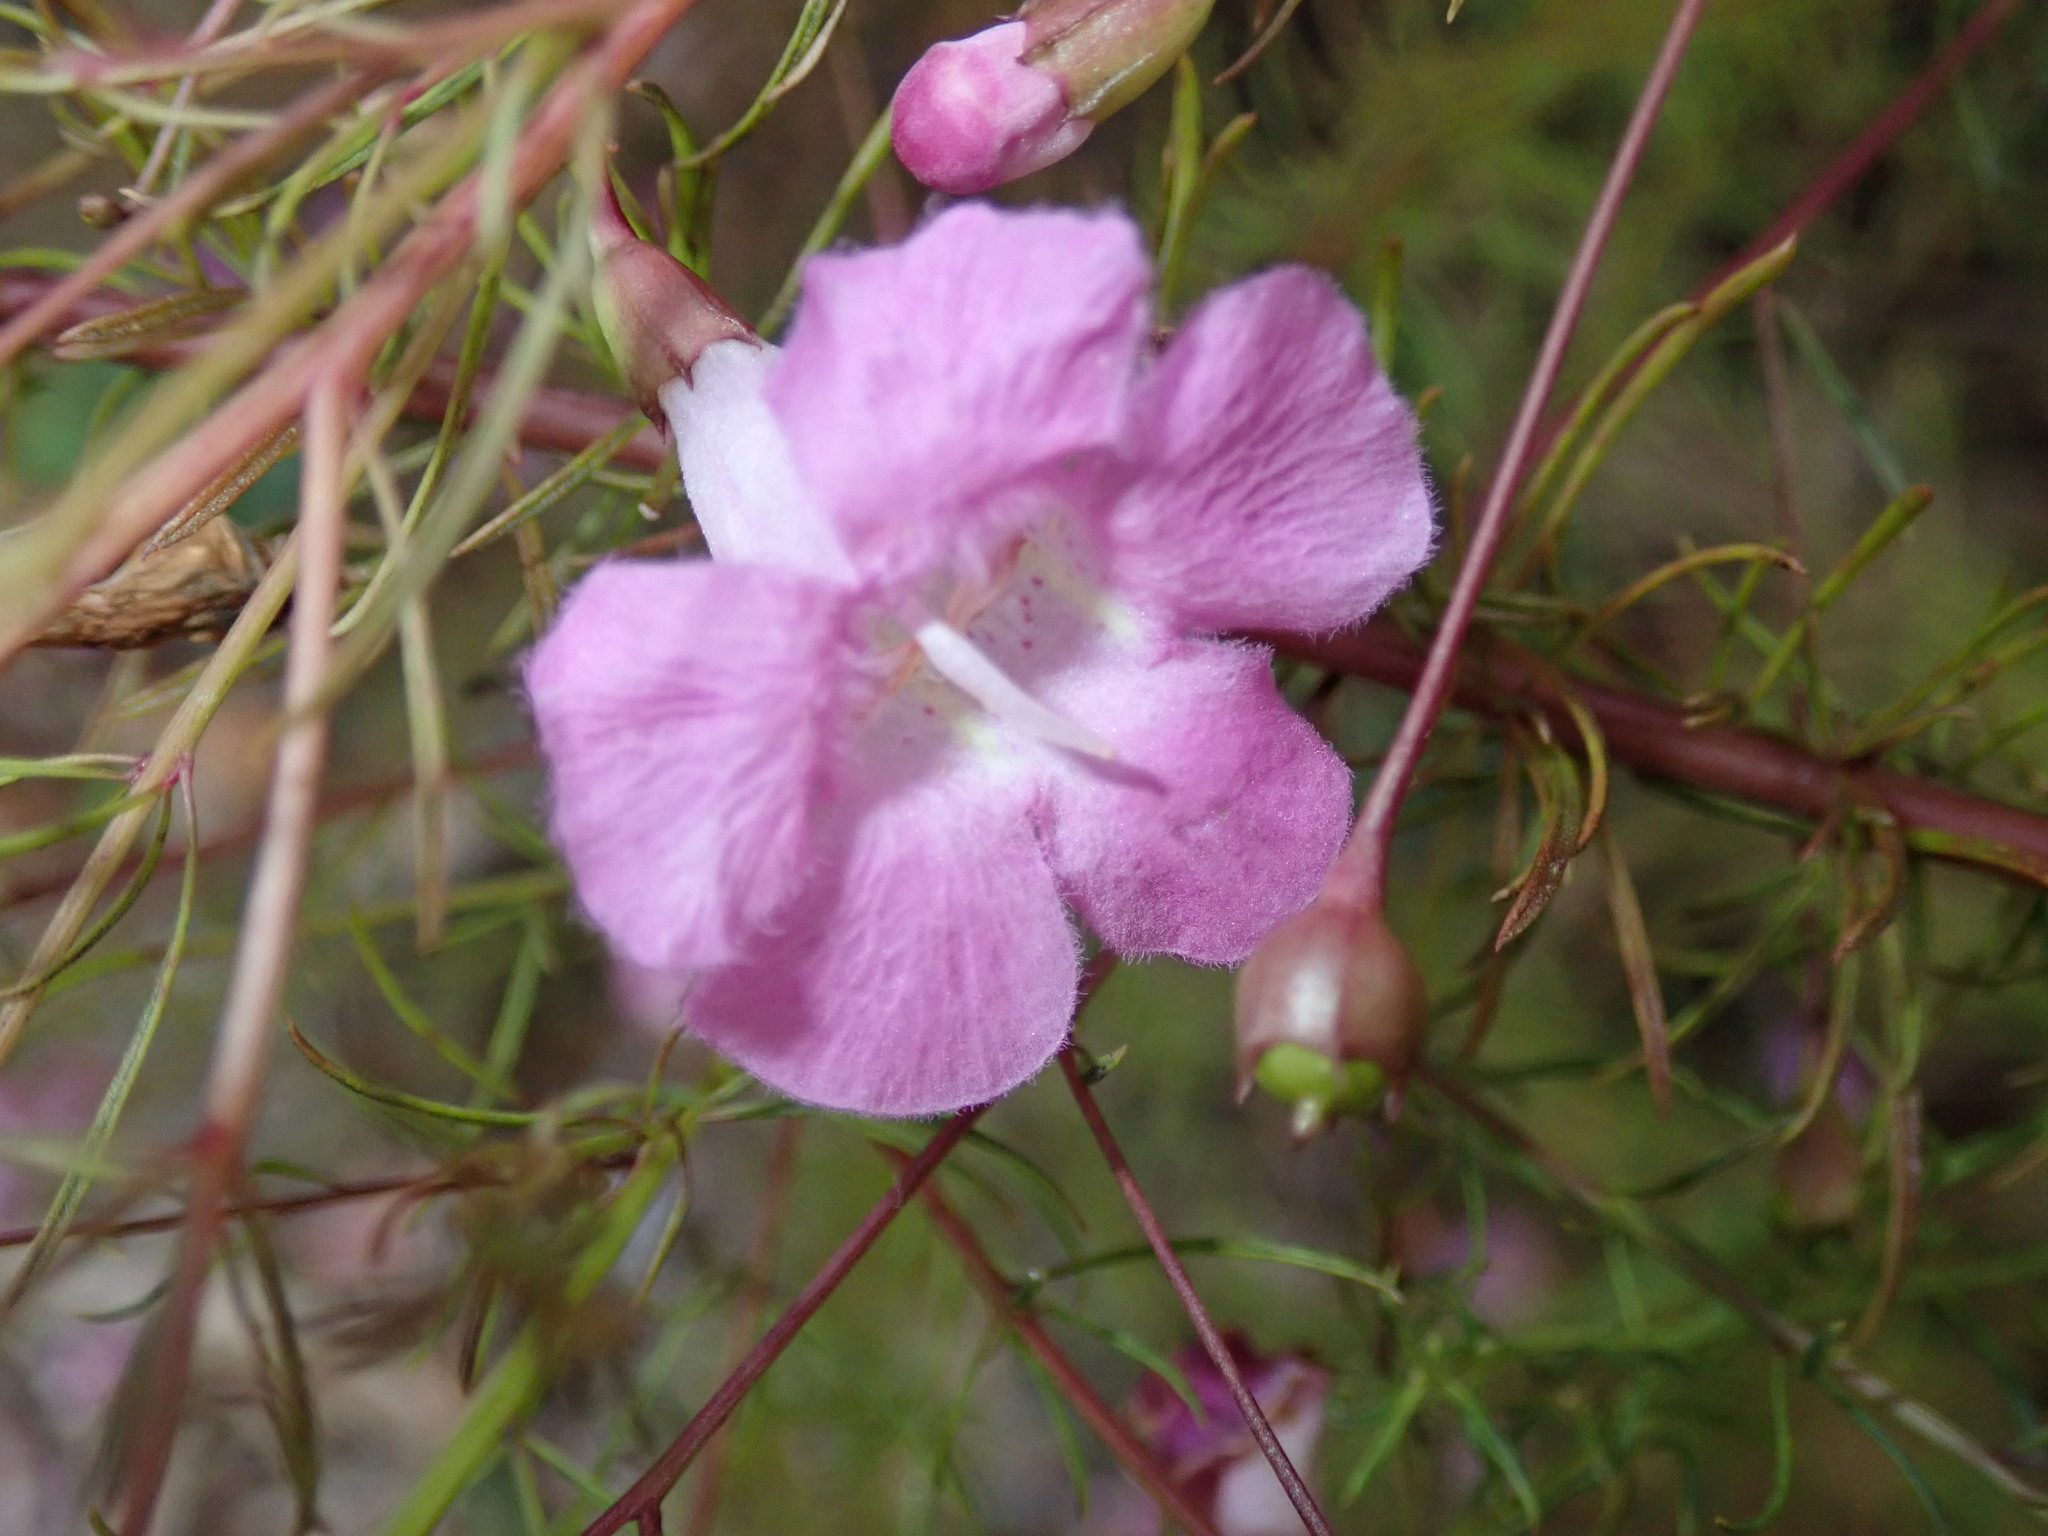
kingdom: Plantae
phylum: Tracheophyta
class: Magnoliopsida
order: Lamiales
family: Orobanchaceae
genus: Agalinis
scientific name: Agalinis filifolia
